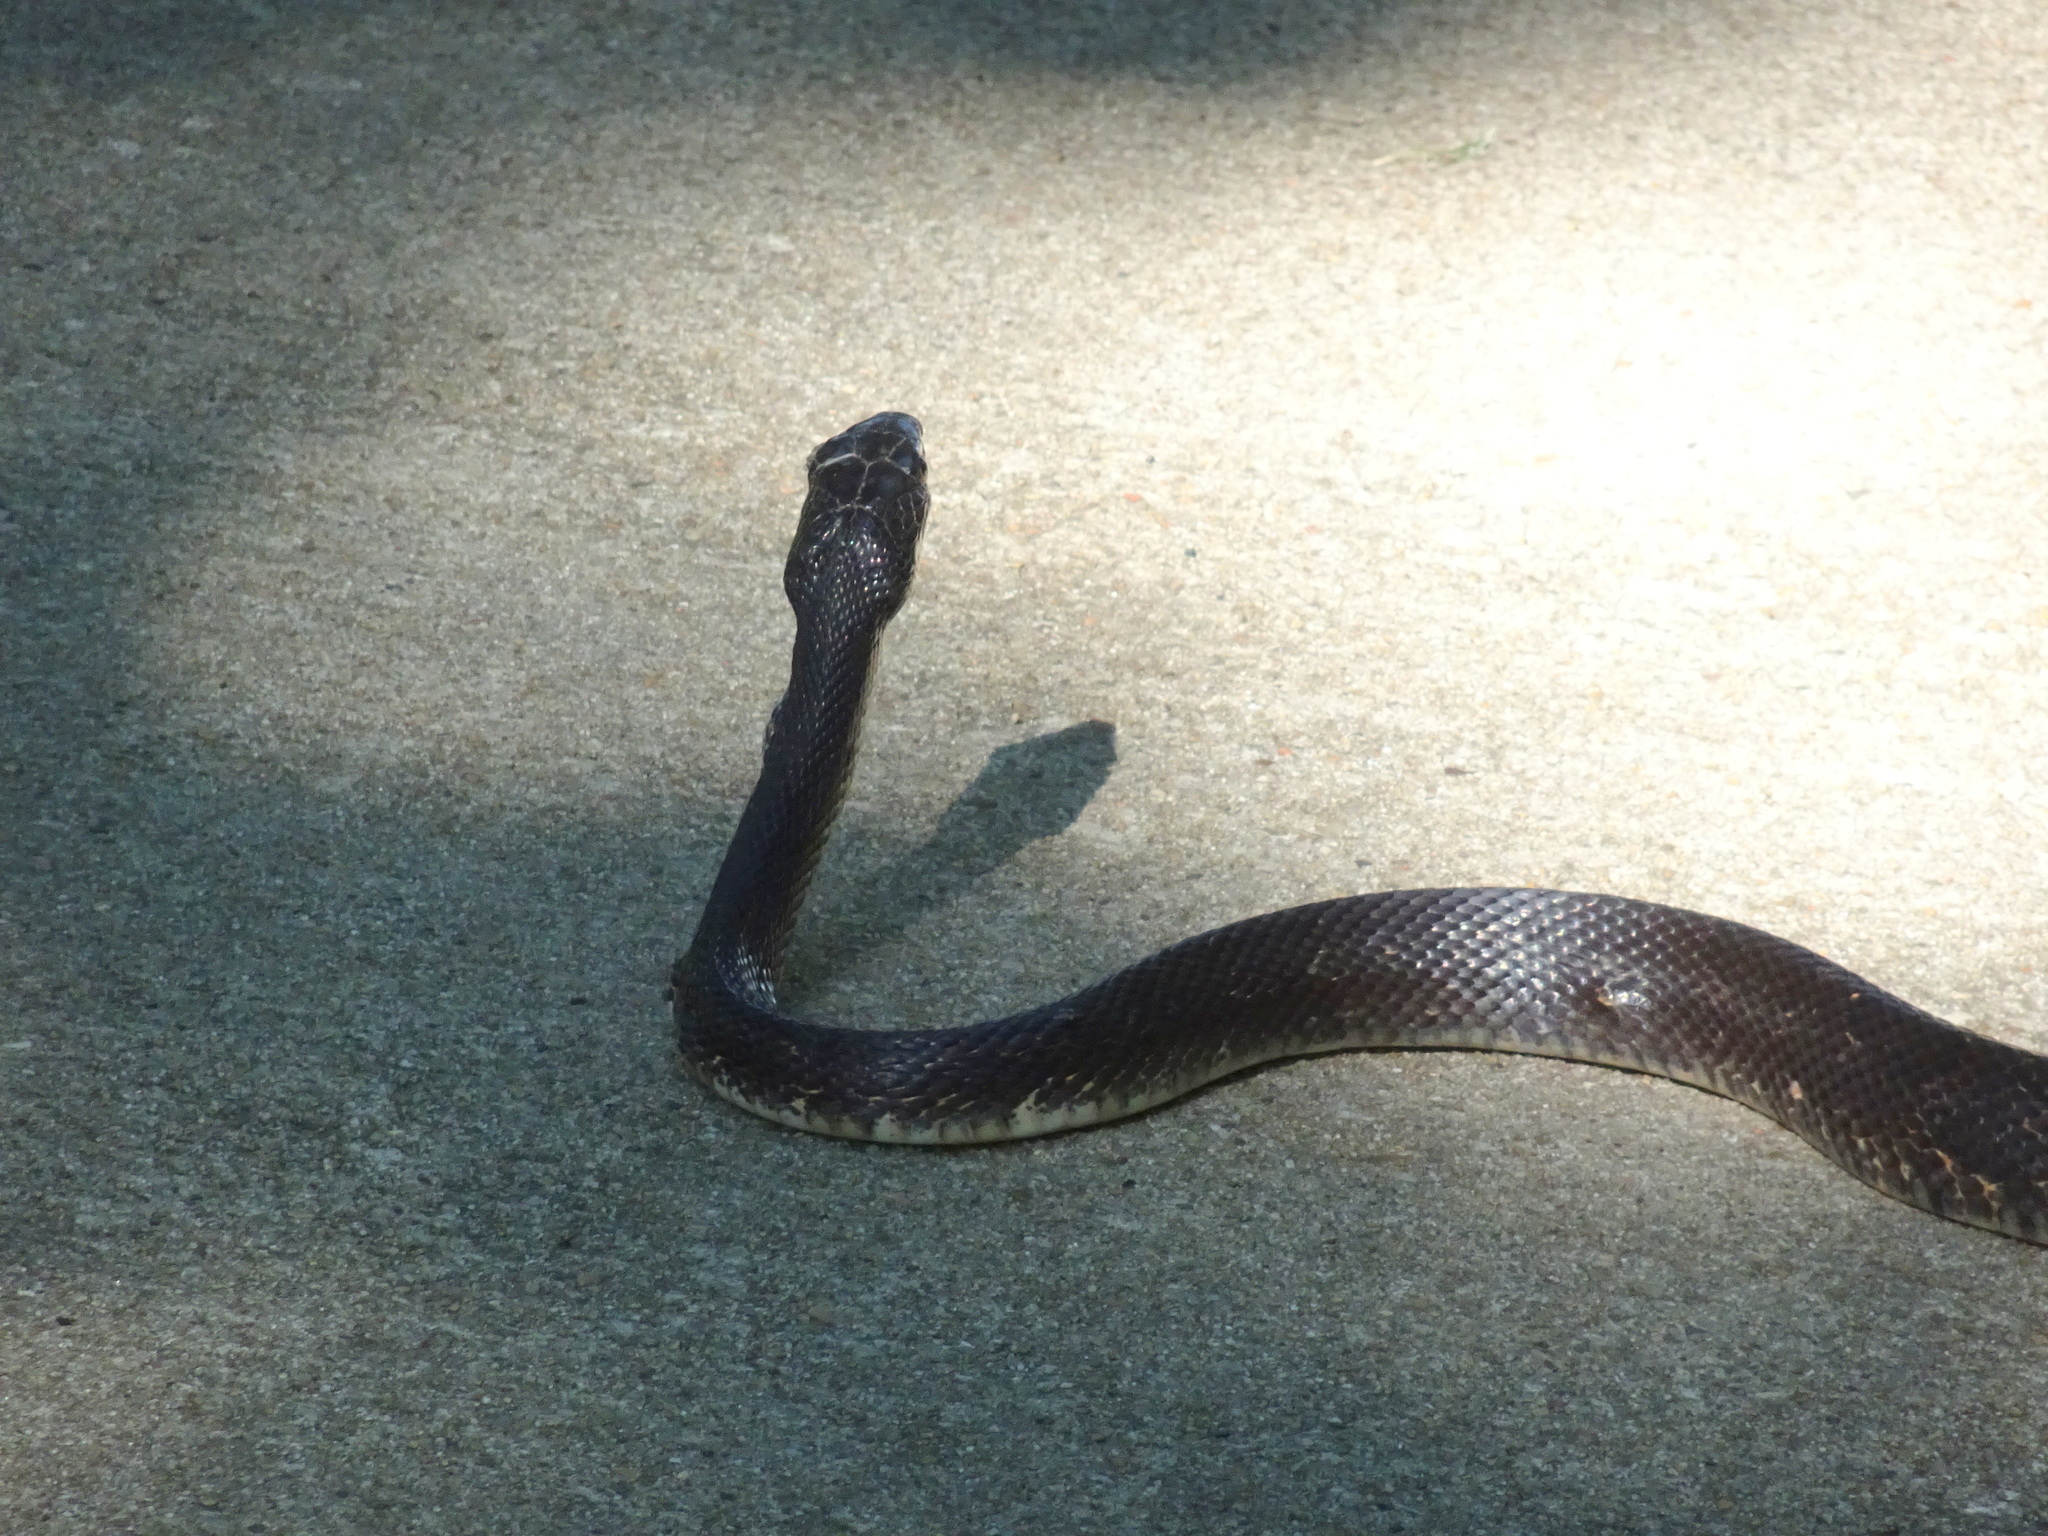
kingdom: Animalia
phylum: Chordata
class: Squamata
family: Colubridae
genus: Pantherophis
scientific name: Pantherophis obsoletus
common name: Black rat snake
